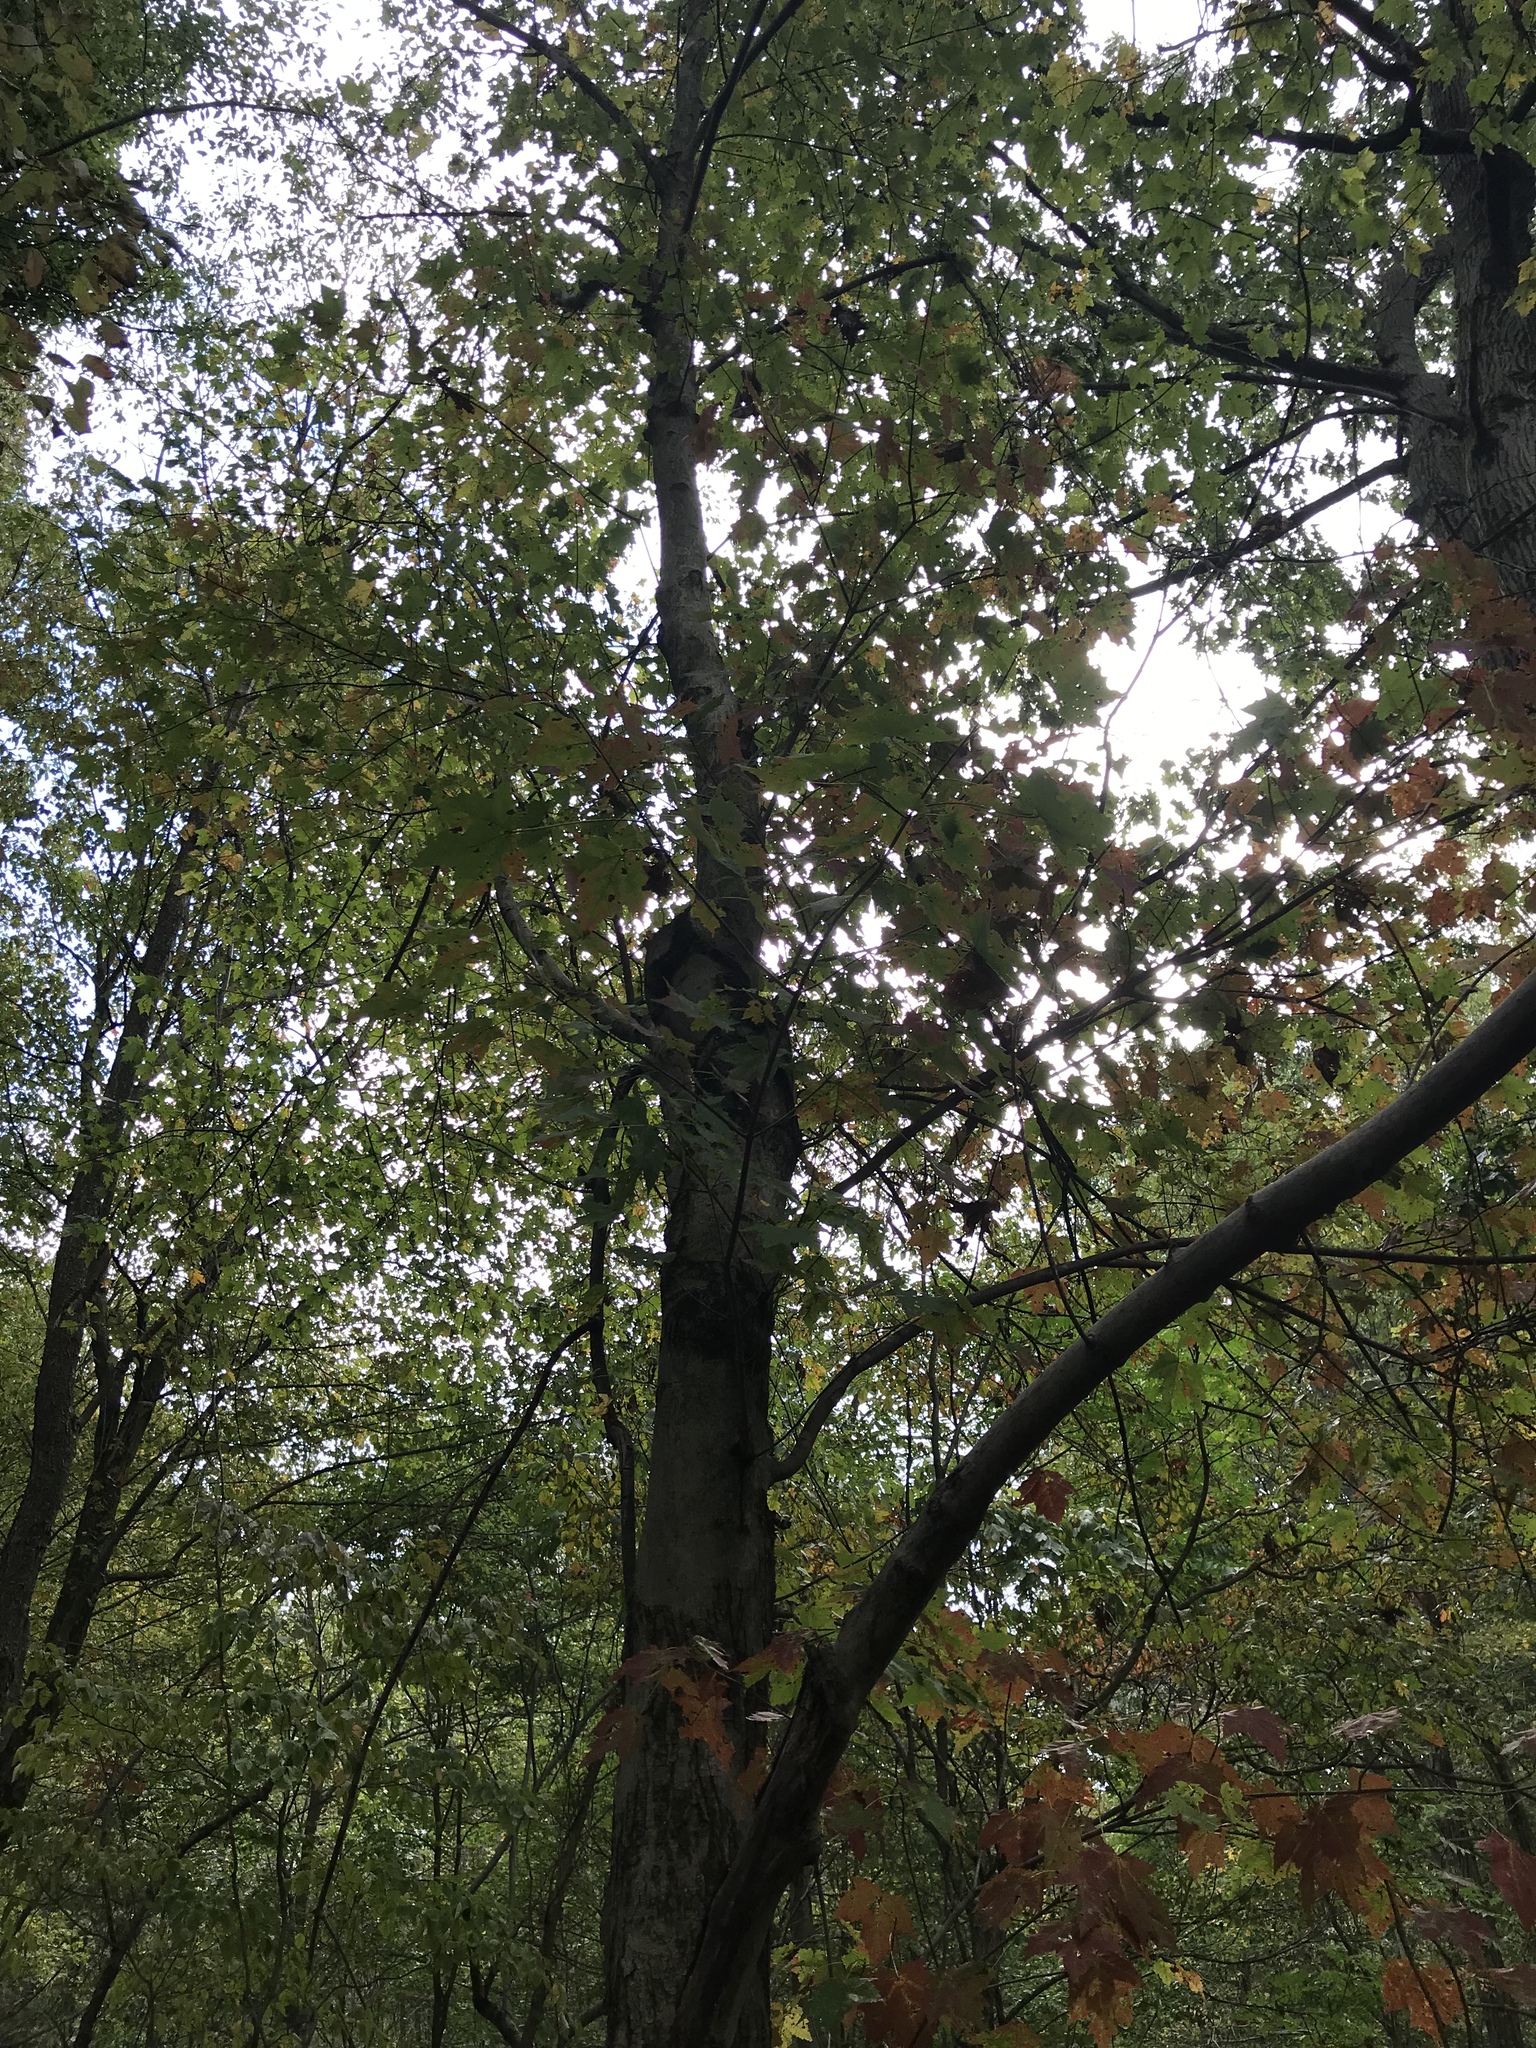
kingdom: Plantae
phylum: Tracheophyta
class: Magnoliopsida
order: Sapindales
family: Sapindaceae
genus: Acer
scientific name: Acer rubrum
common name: Red maple
